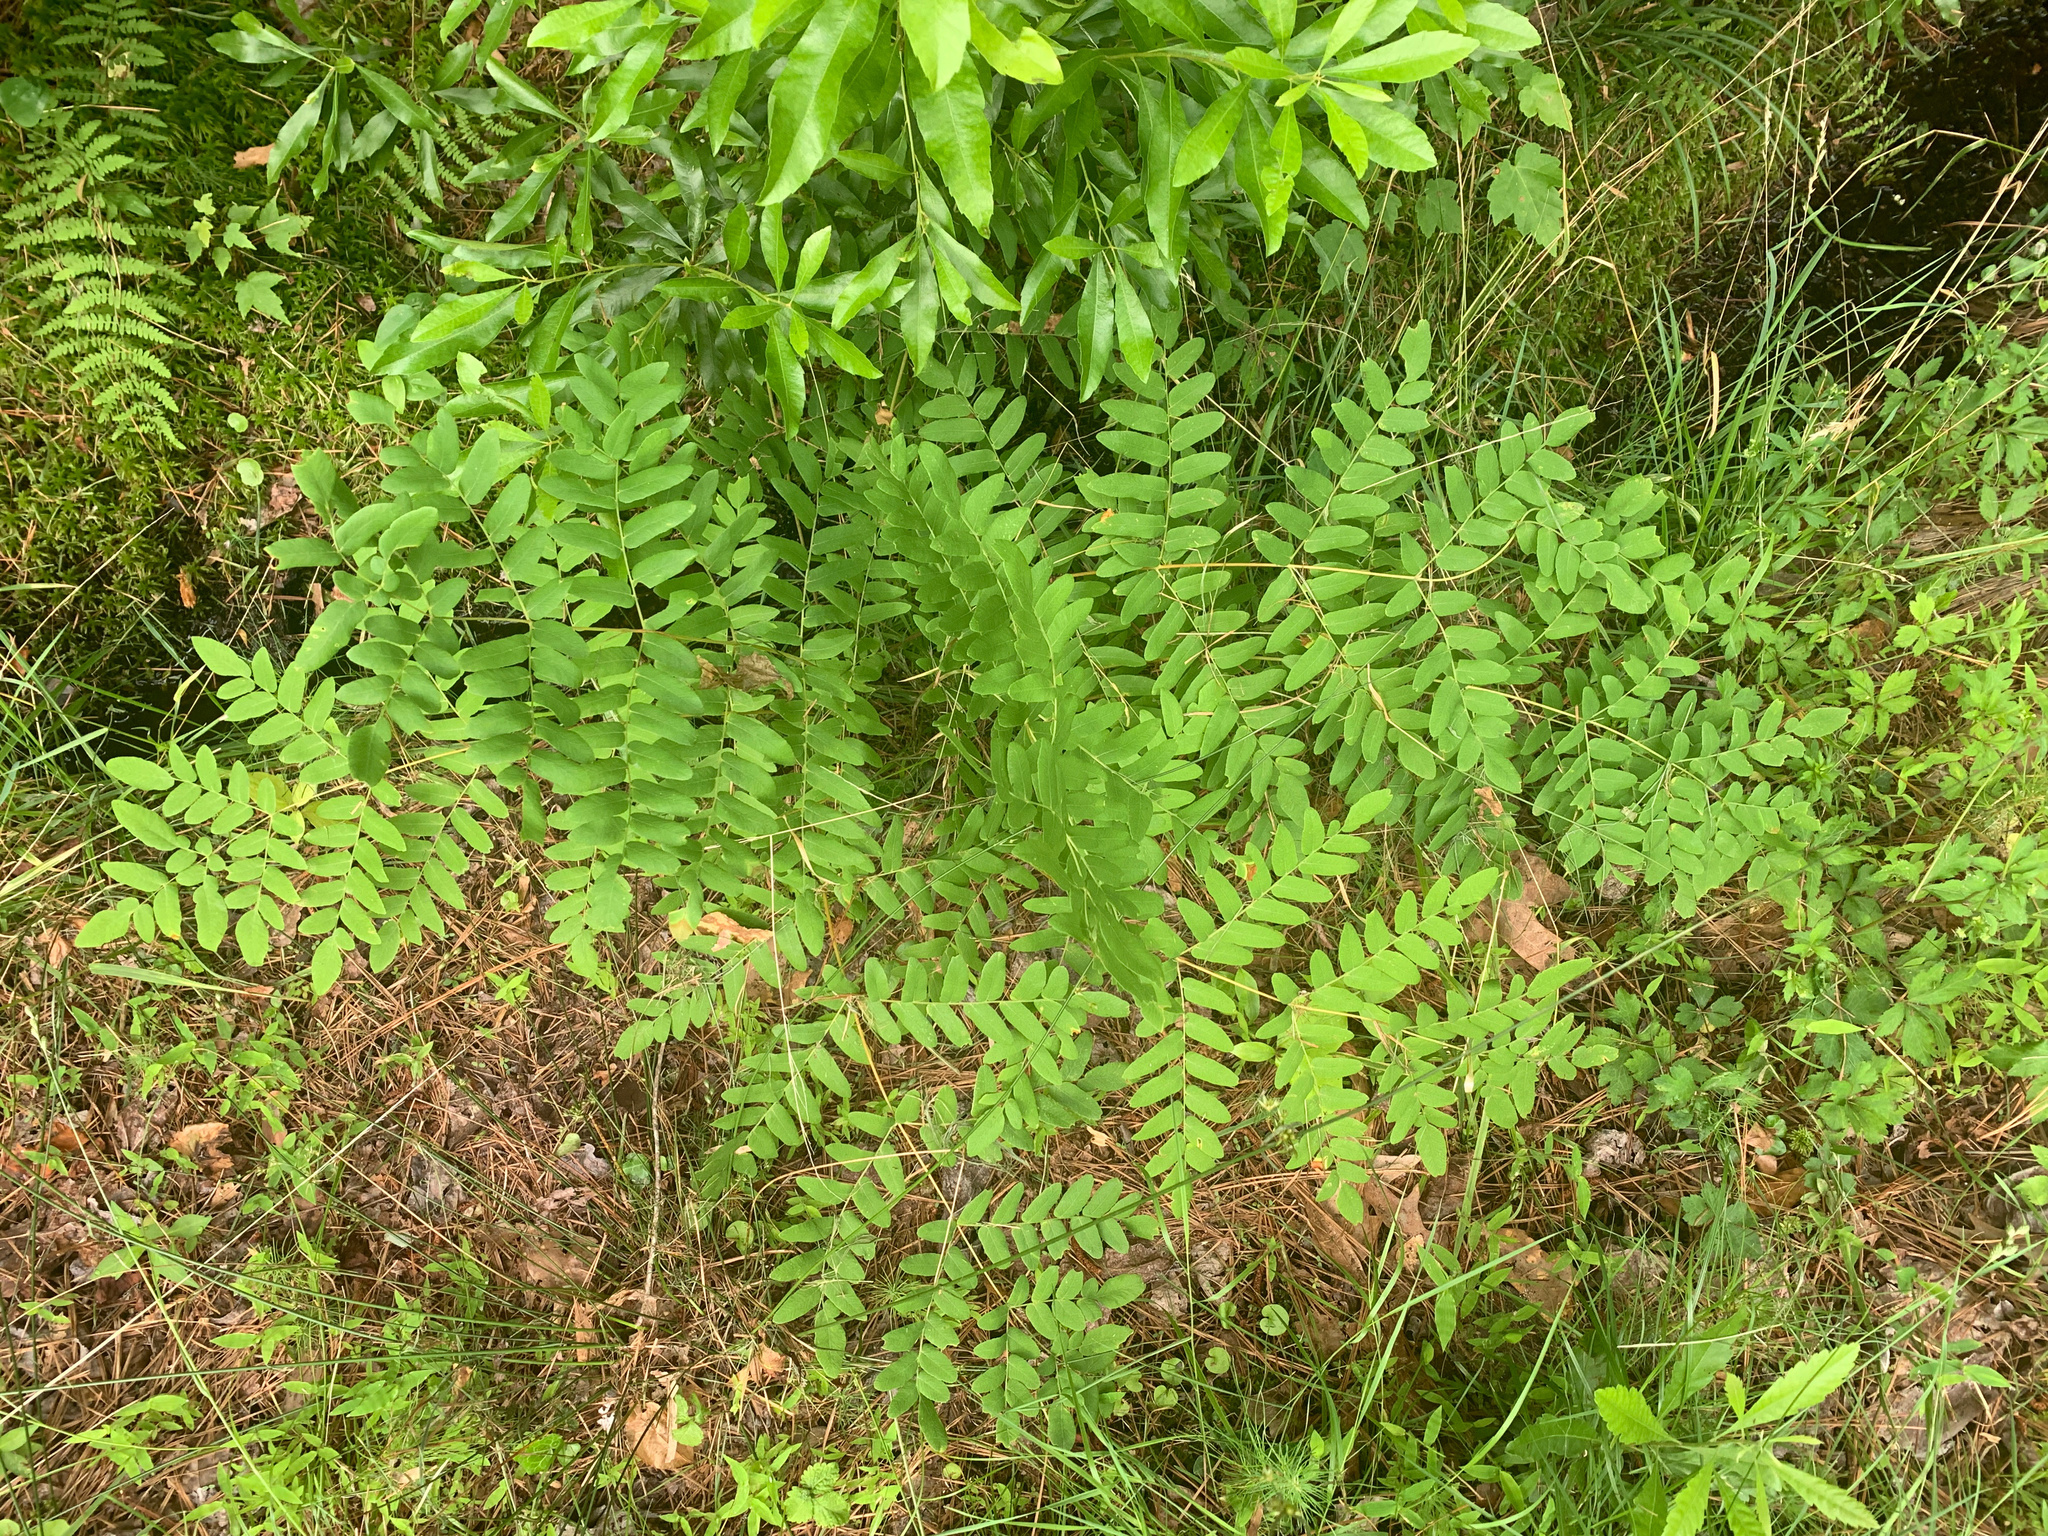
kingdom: Plantae
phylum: Tracheophyta
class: Polypodiopsida
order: Osmundales
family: Osmundaceae
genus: Osmunda
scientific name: Osmunda spectabilis
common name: American royal fern
